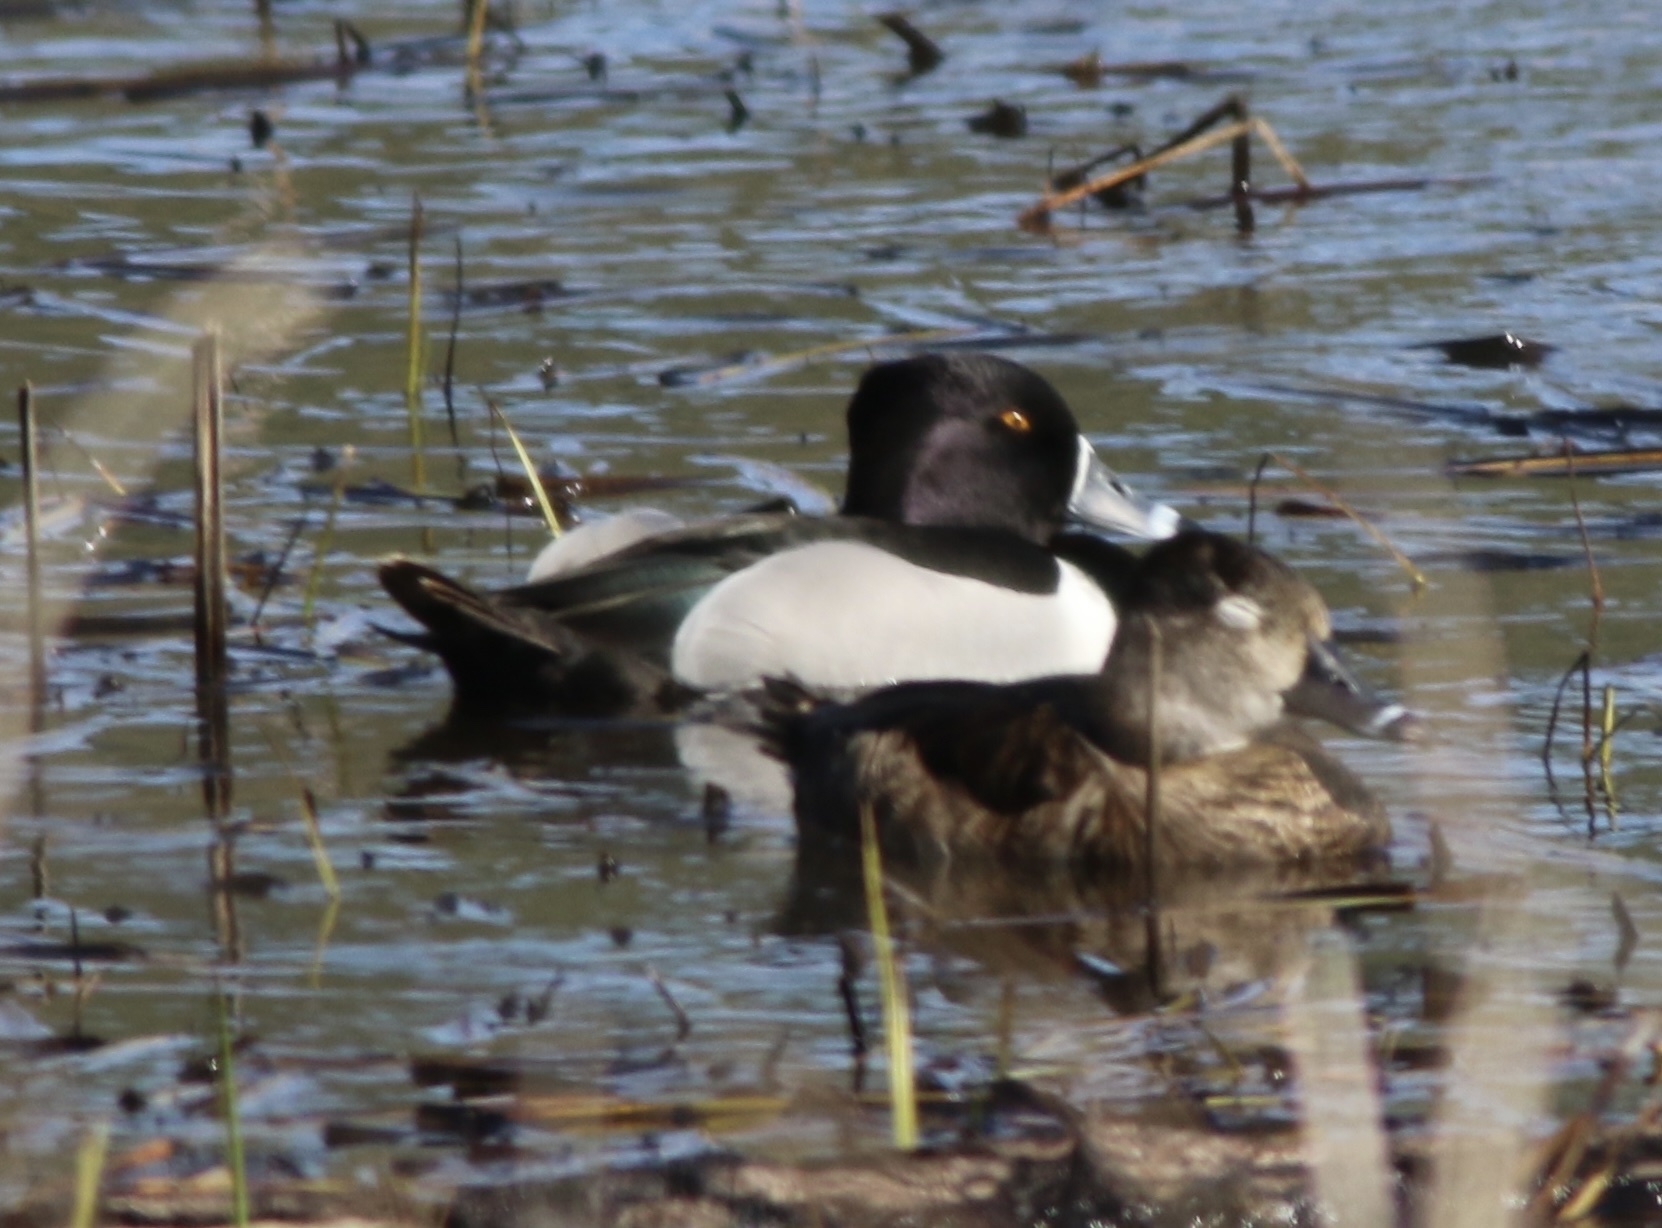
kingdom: Animalia
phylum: Chordata
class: Aves
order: Anseriformes
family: Anatidae
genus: Aythya
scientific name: Aythya collaris
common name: Ring-necked duck
